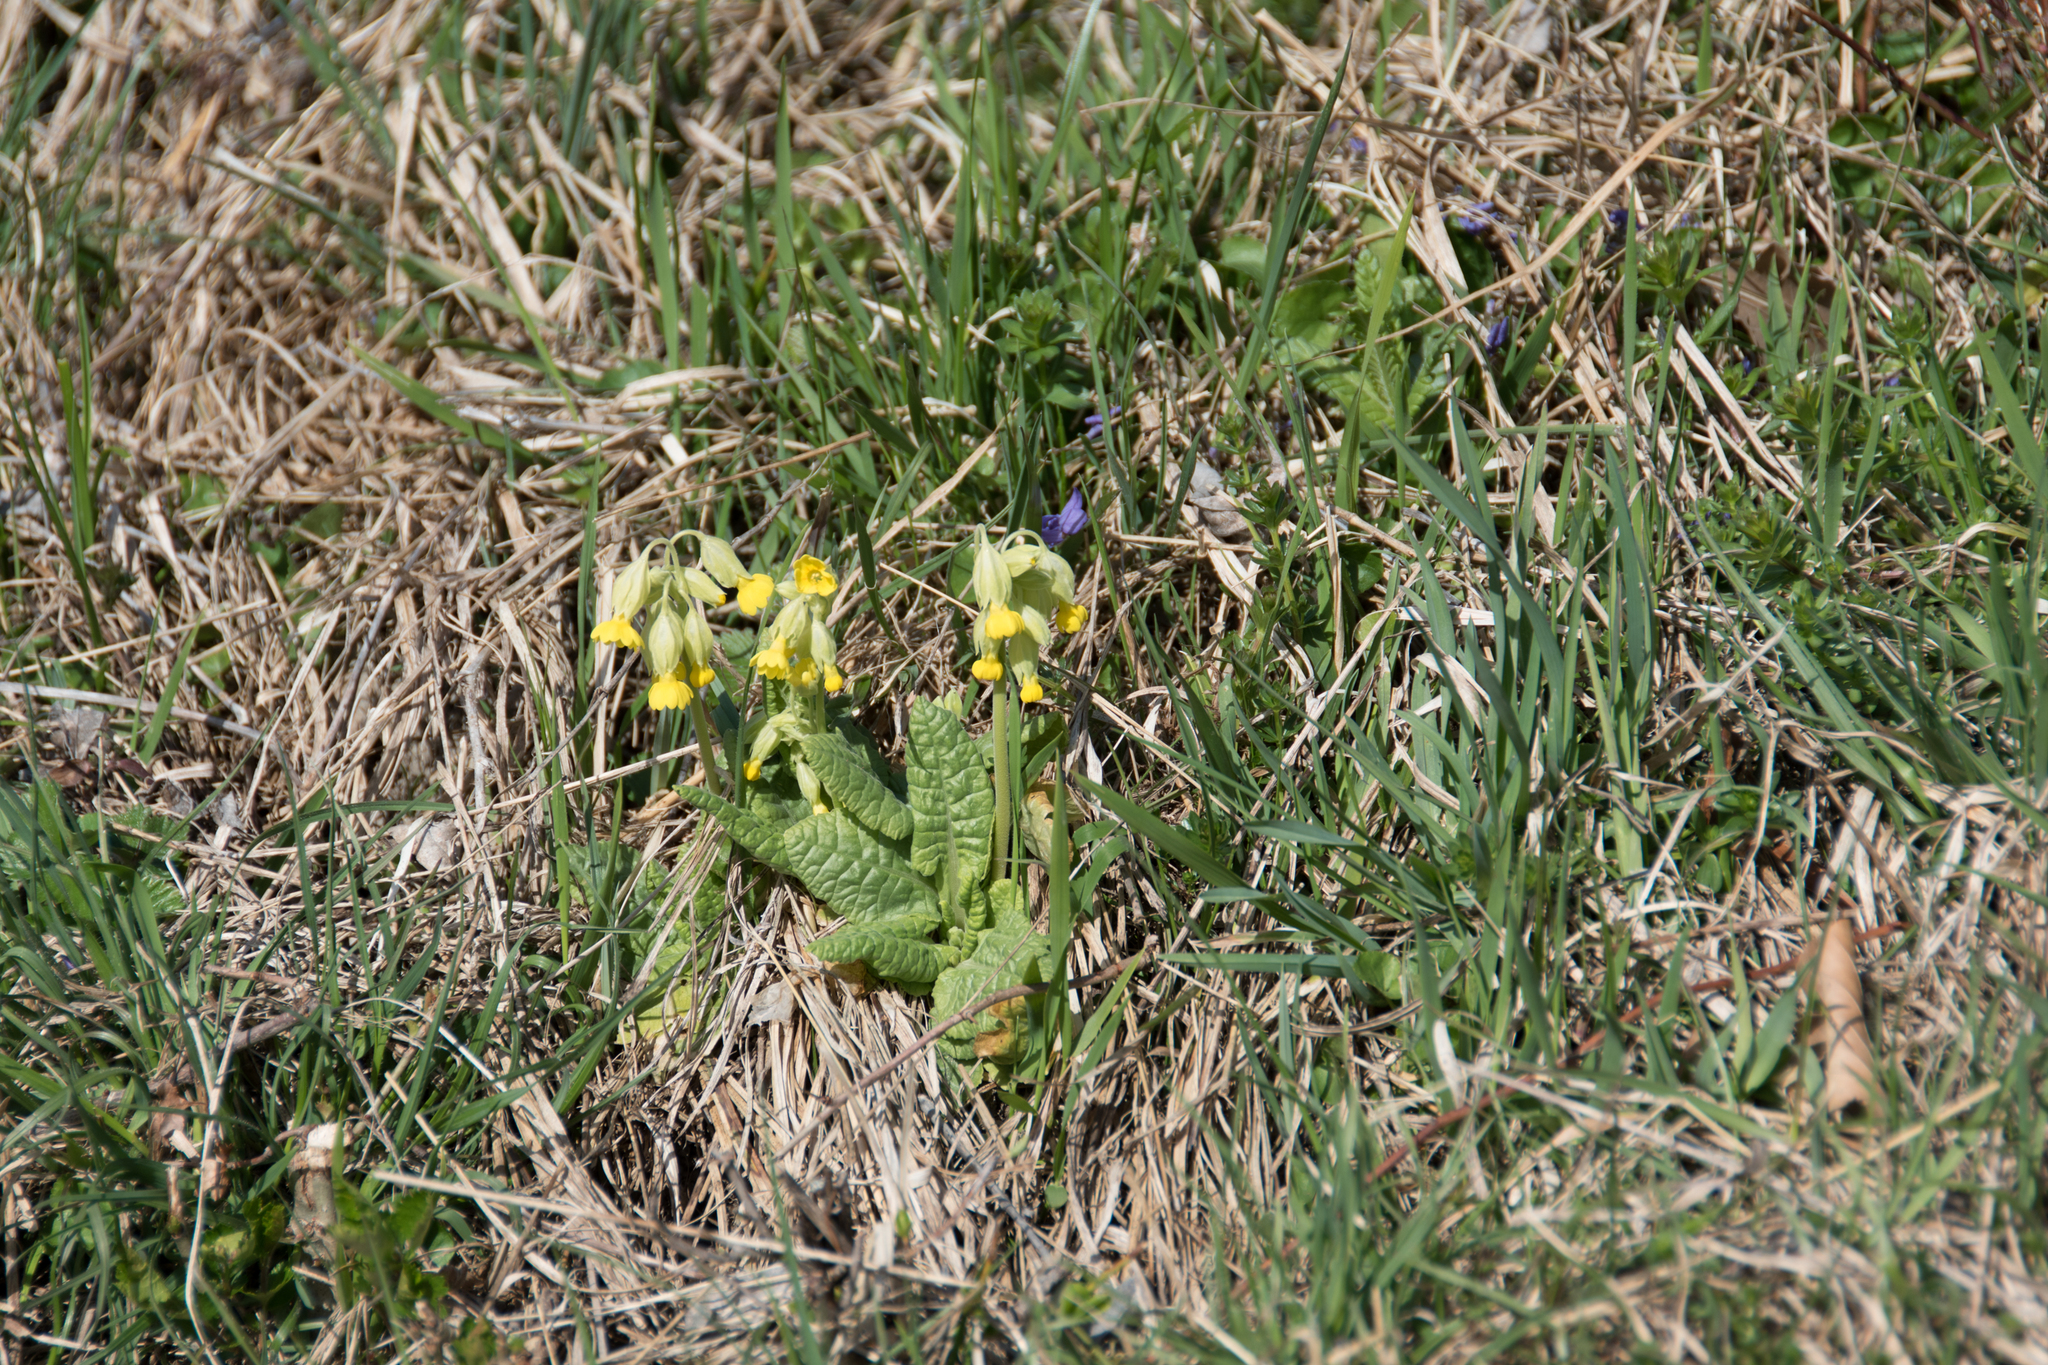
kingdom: Plantae
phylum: Tracheophyta
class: Magnoliopsida
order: Ericales
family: Primulaceae
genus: Primula
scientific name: Primula veris
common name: Cowslip
